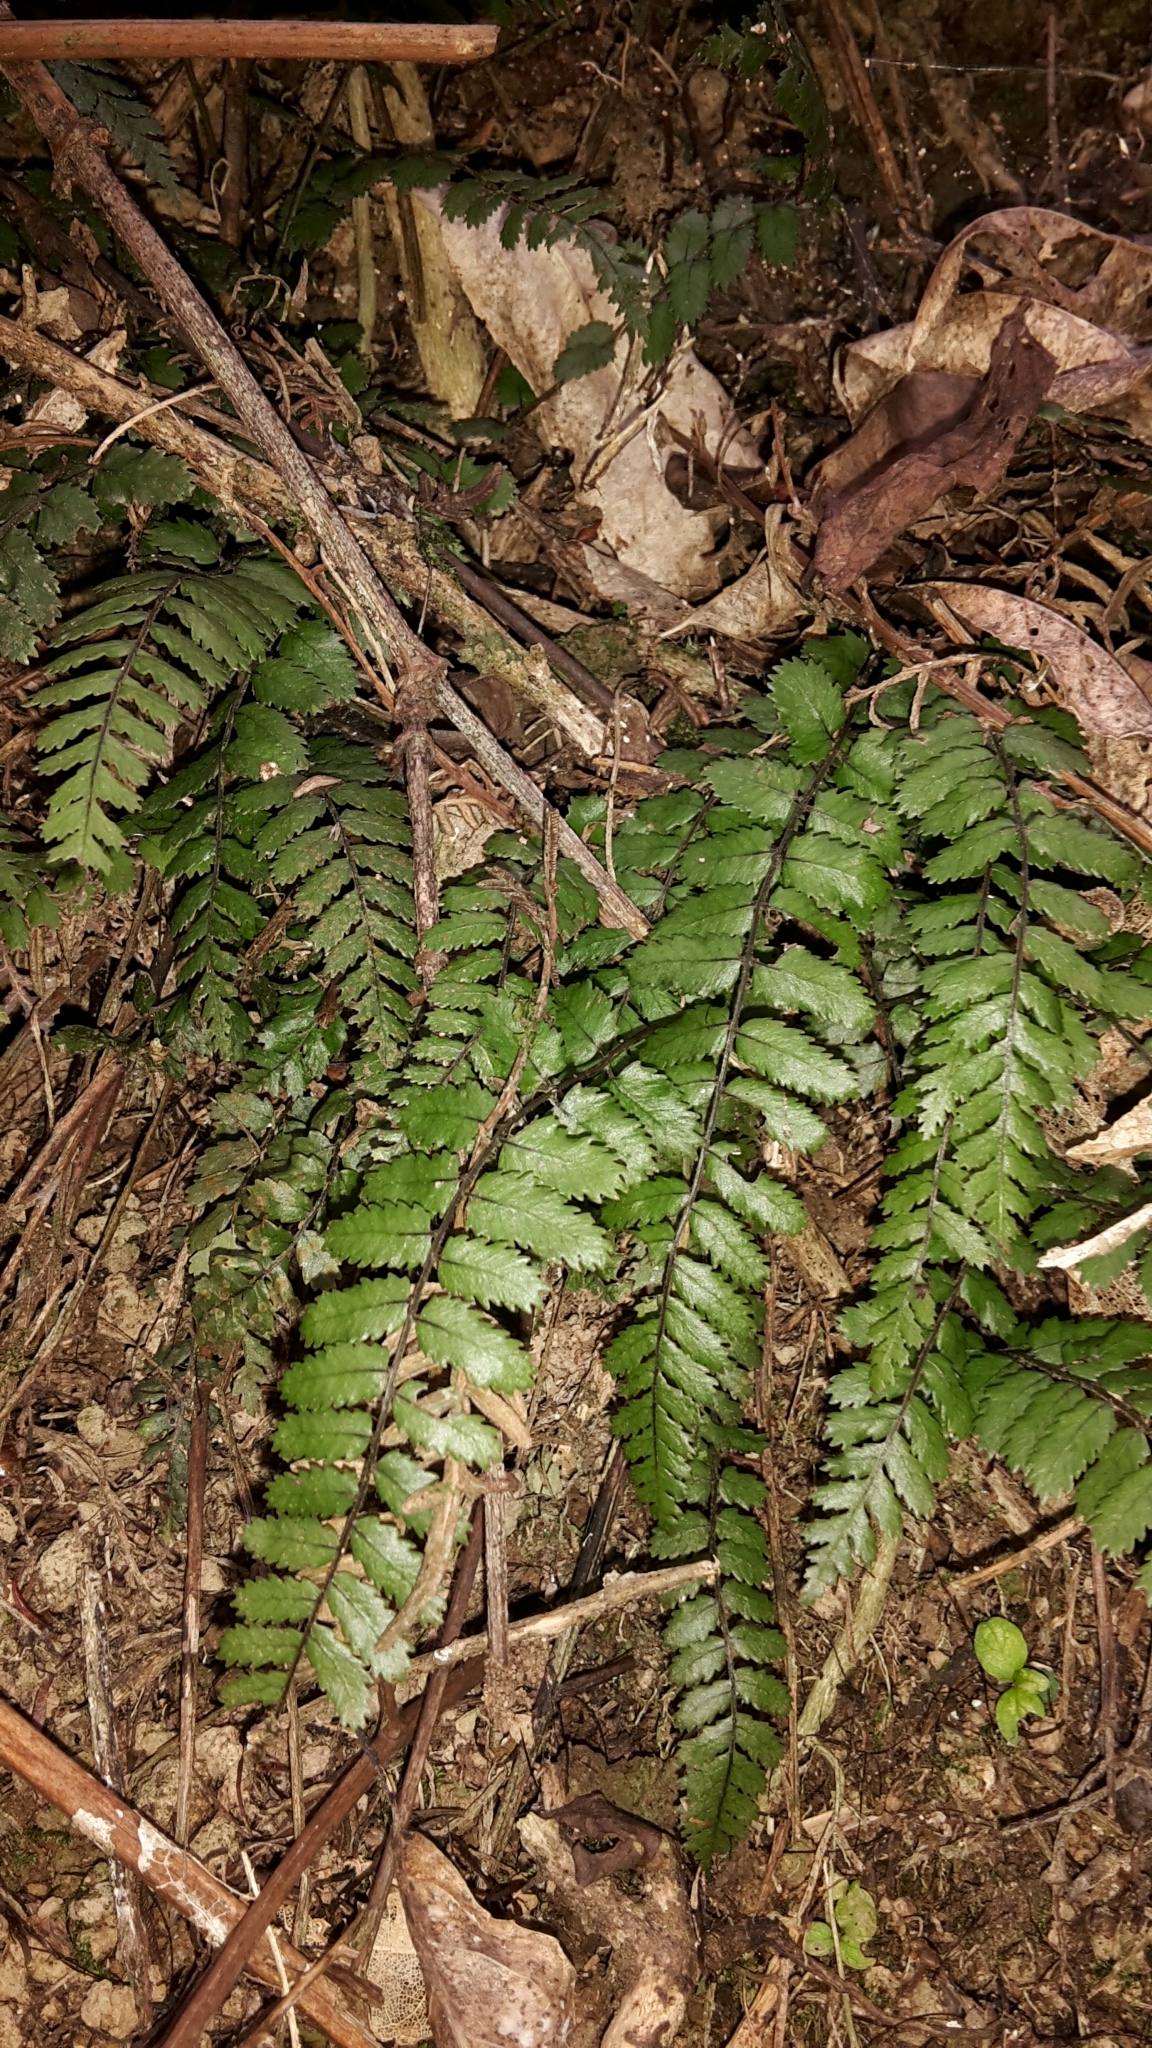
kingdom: Plantae
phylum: Tracheophyta
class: Polypodiopsida
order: Polypodiales
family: Blechnaceae
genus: Icarus
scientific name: Icarus filiformis
